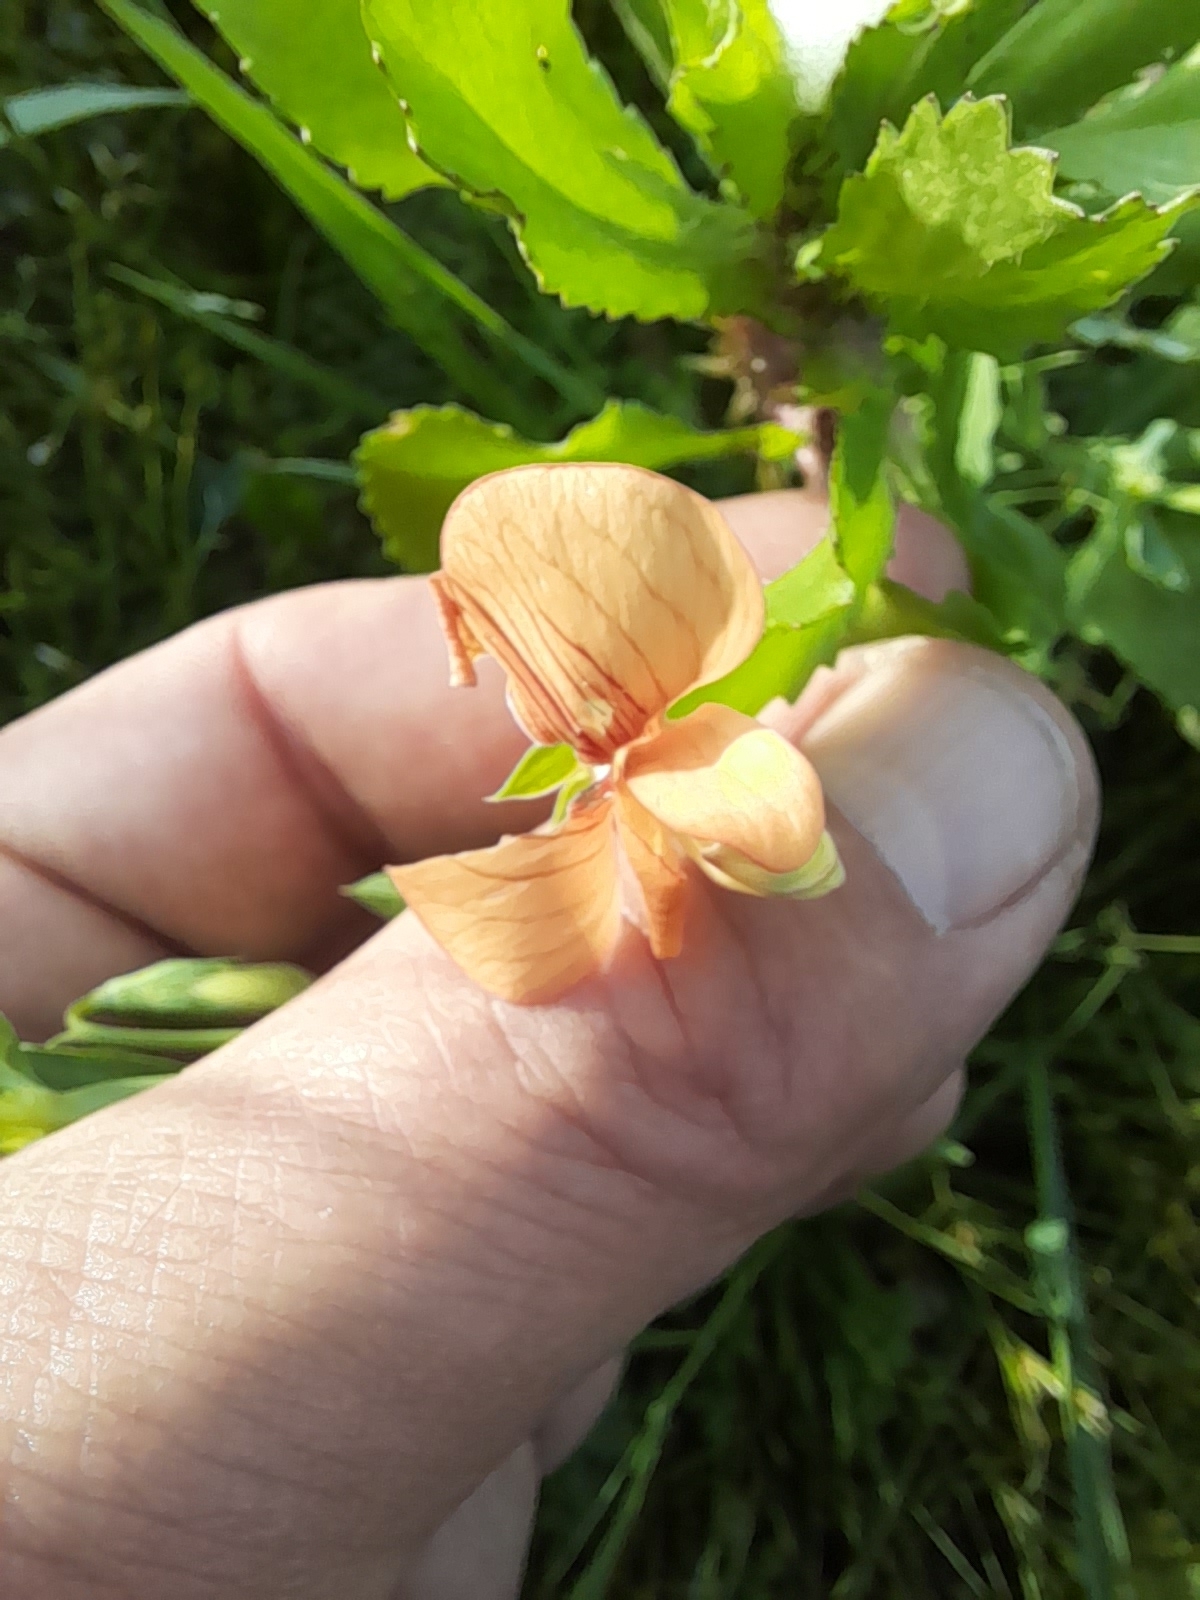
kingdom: Plantae
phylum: Tracheophyta
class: Magnoliopsida
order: Fabales
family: Fabaceae
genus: Lathyrus
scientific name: Lathyrus cicera
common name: Red vetchling
